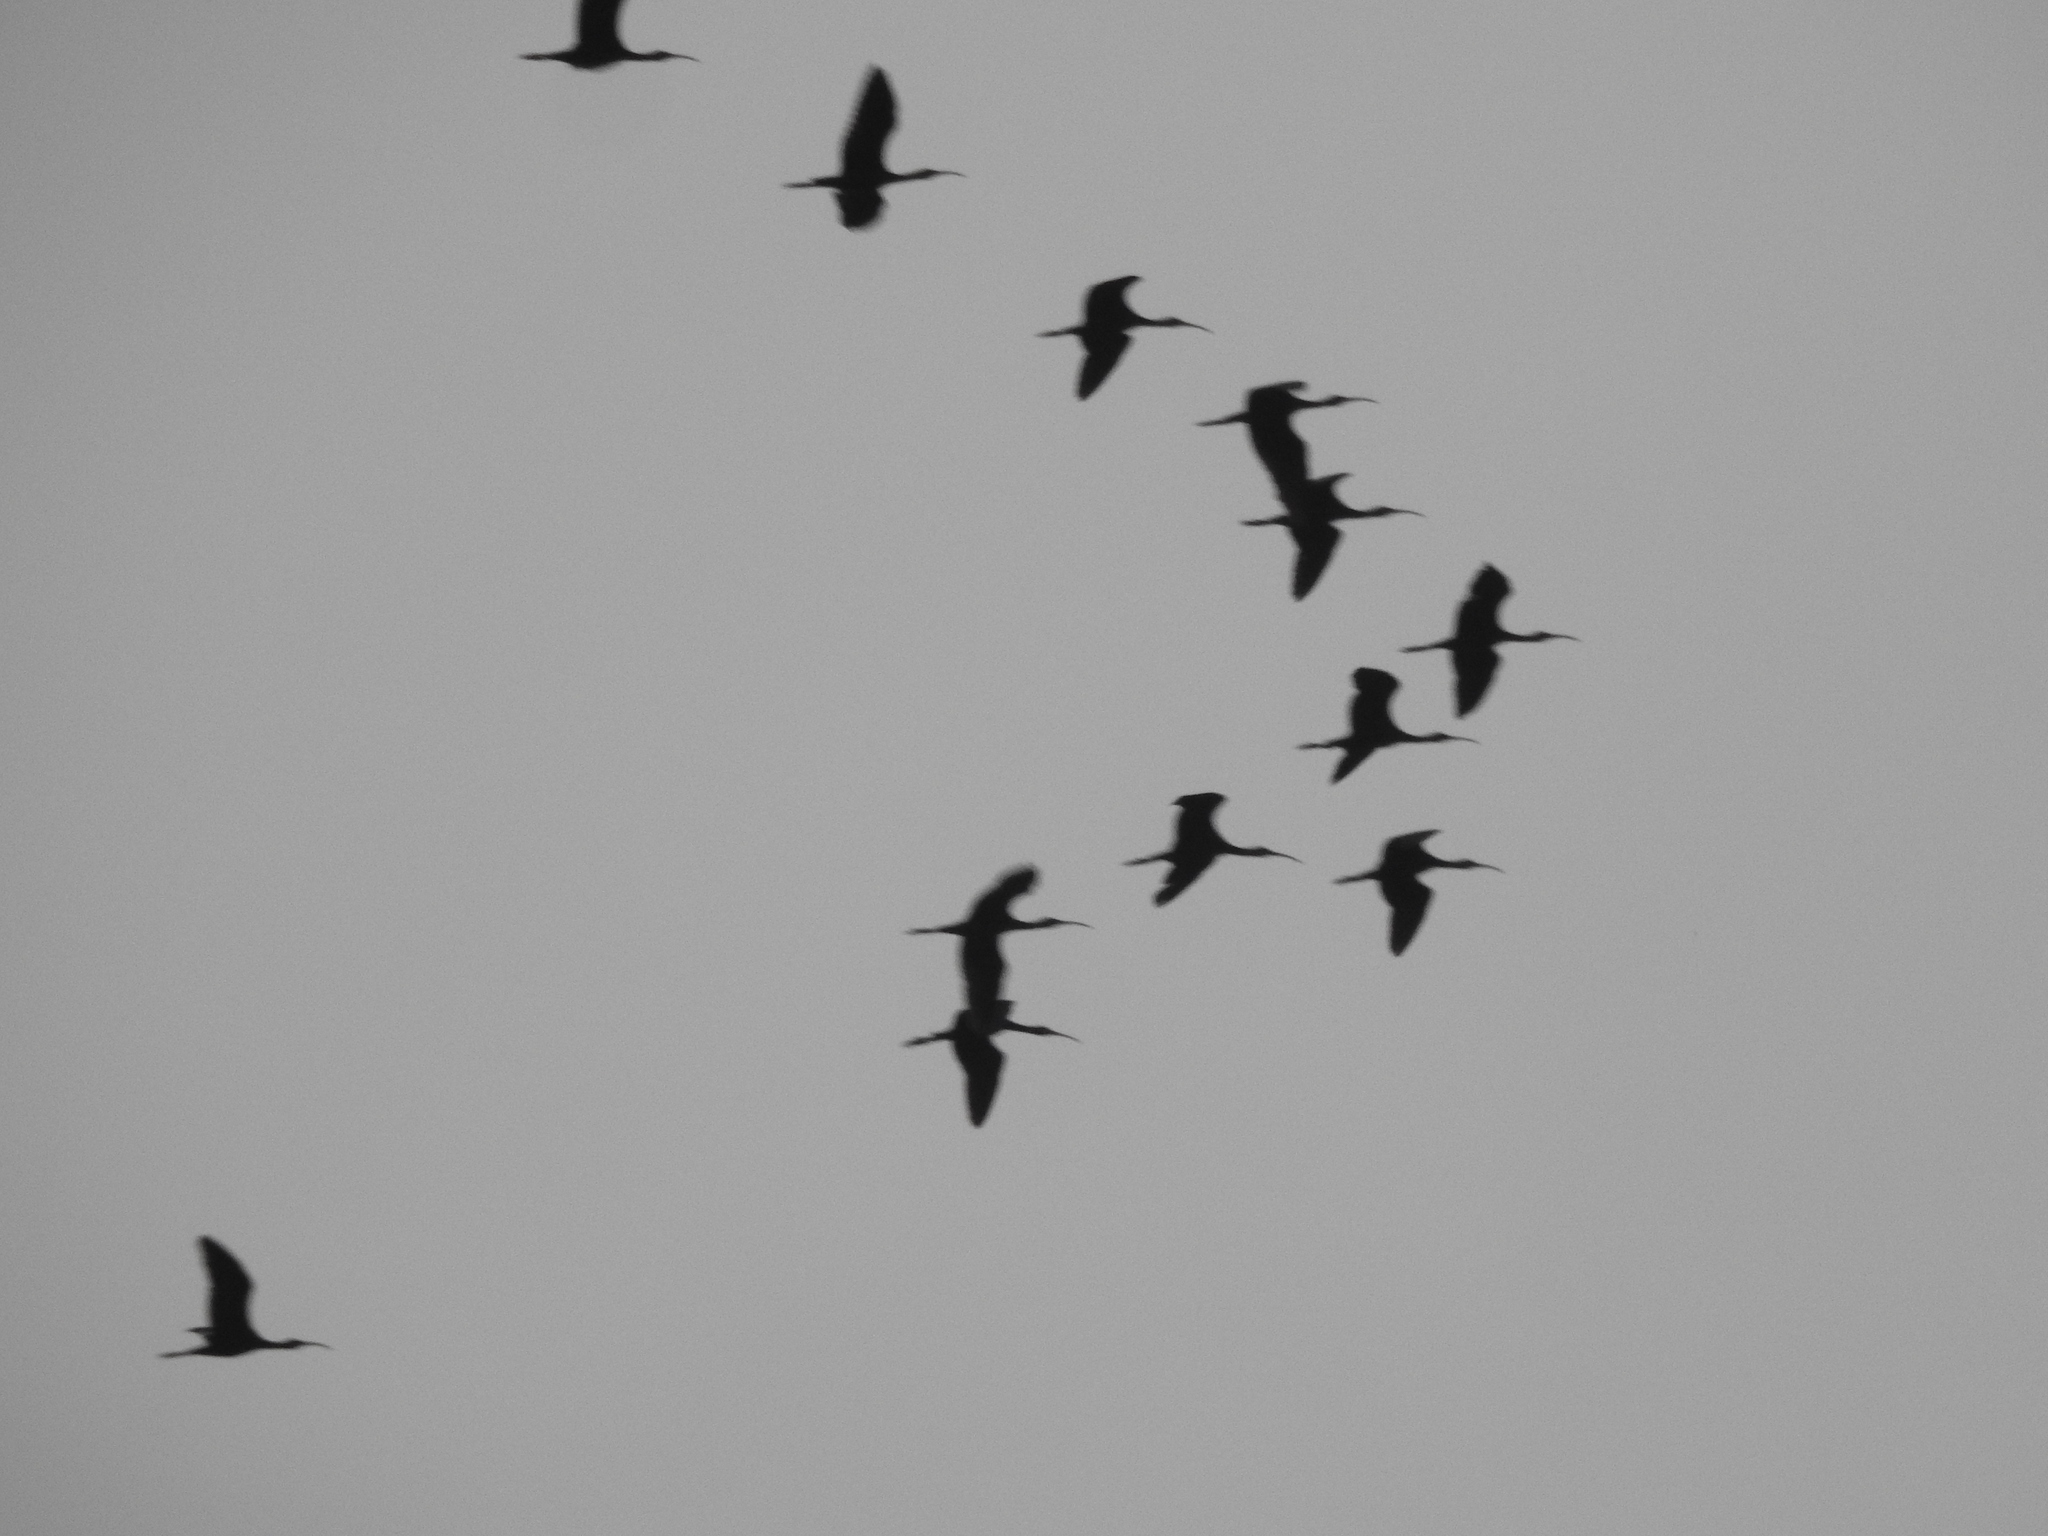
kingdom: Animalia
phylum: Chordata
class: Aves
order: Pelecaniformes
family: Threskiornithidae
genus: Plegadis
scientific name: Plegadis falcinellus
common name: Glossy ibis
